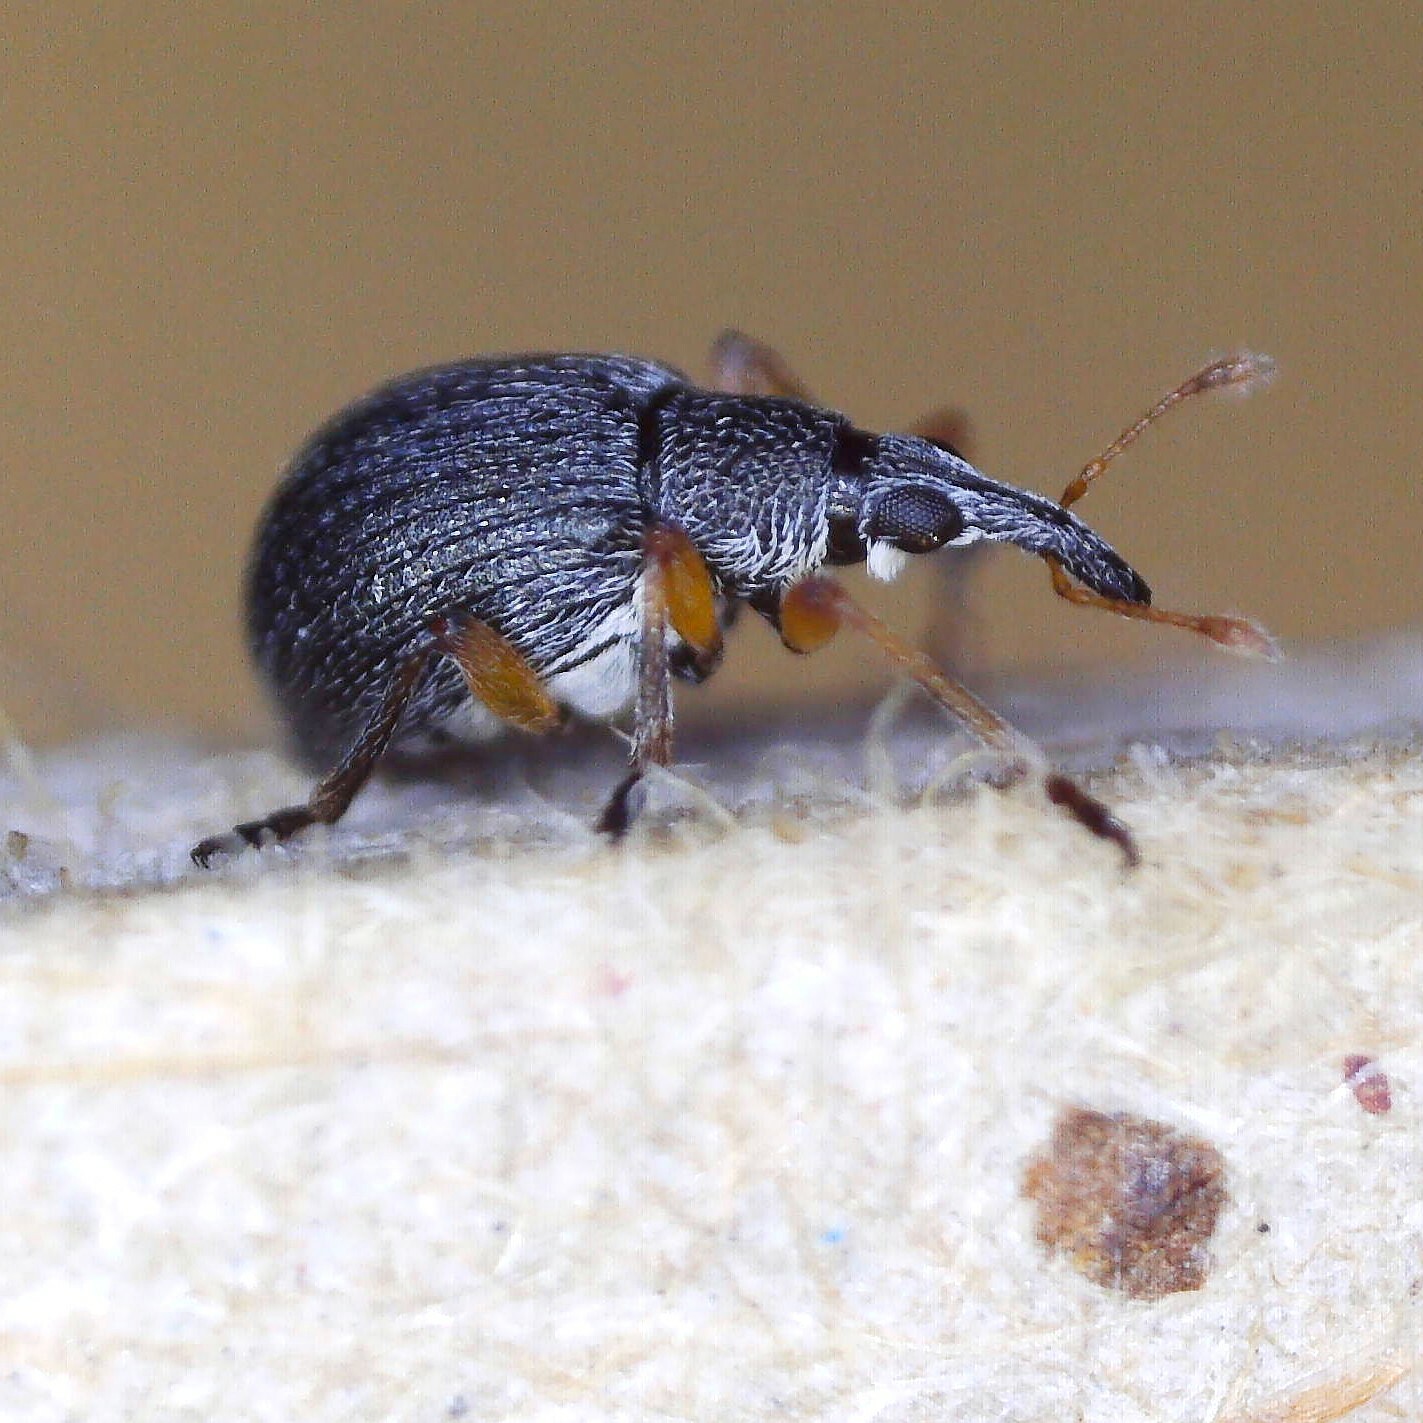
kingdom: Animalia
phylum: Arthropoda
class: Insecta
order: Coleoptera
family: Brentidae
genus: Eutrichapion
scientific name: Eutrichapion viciae
